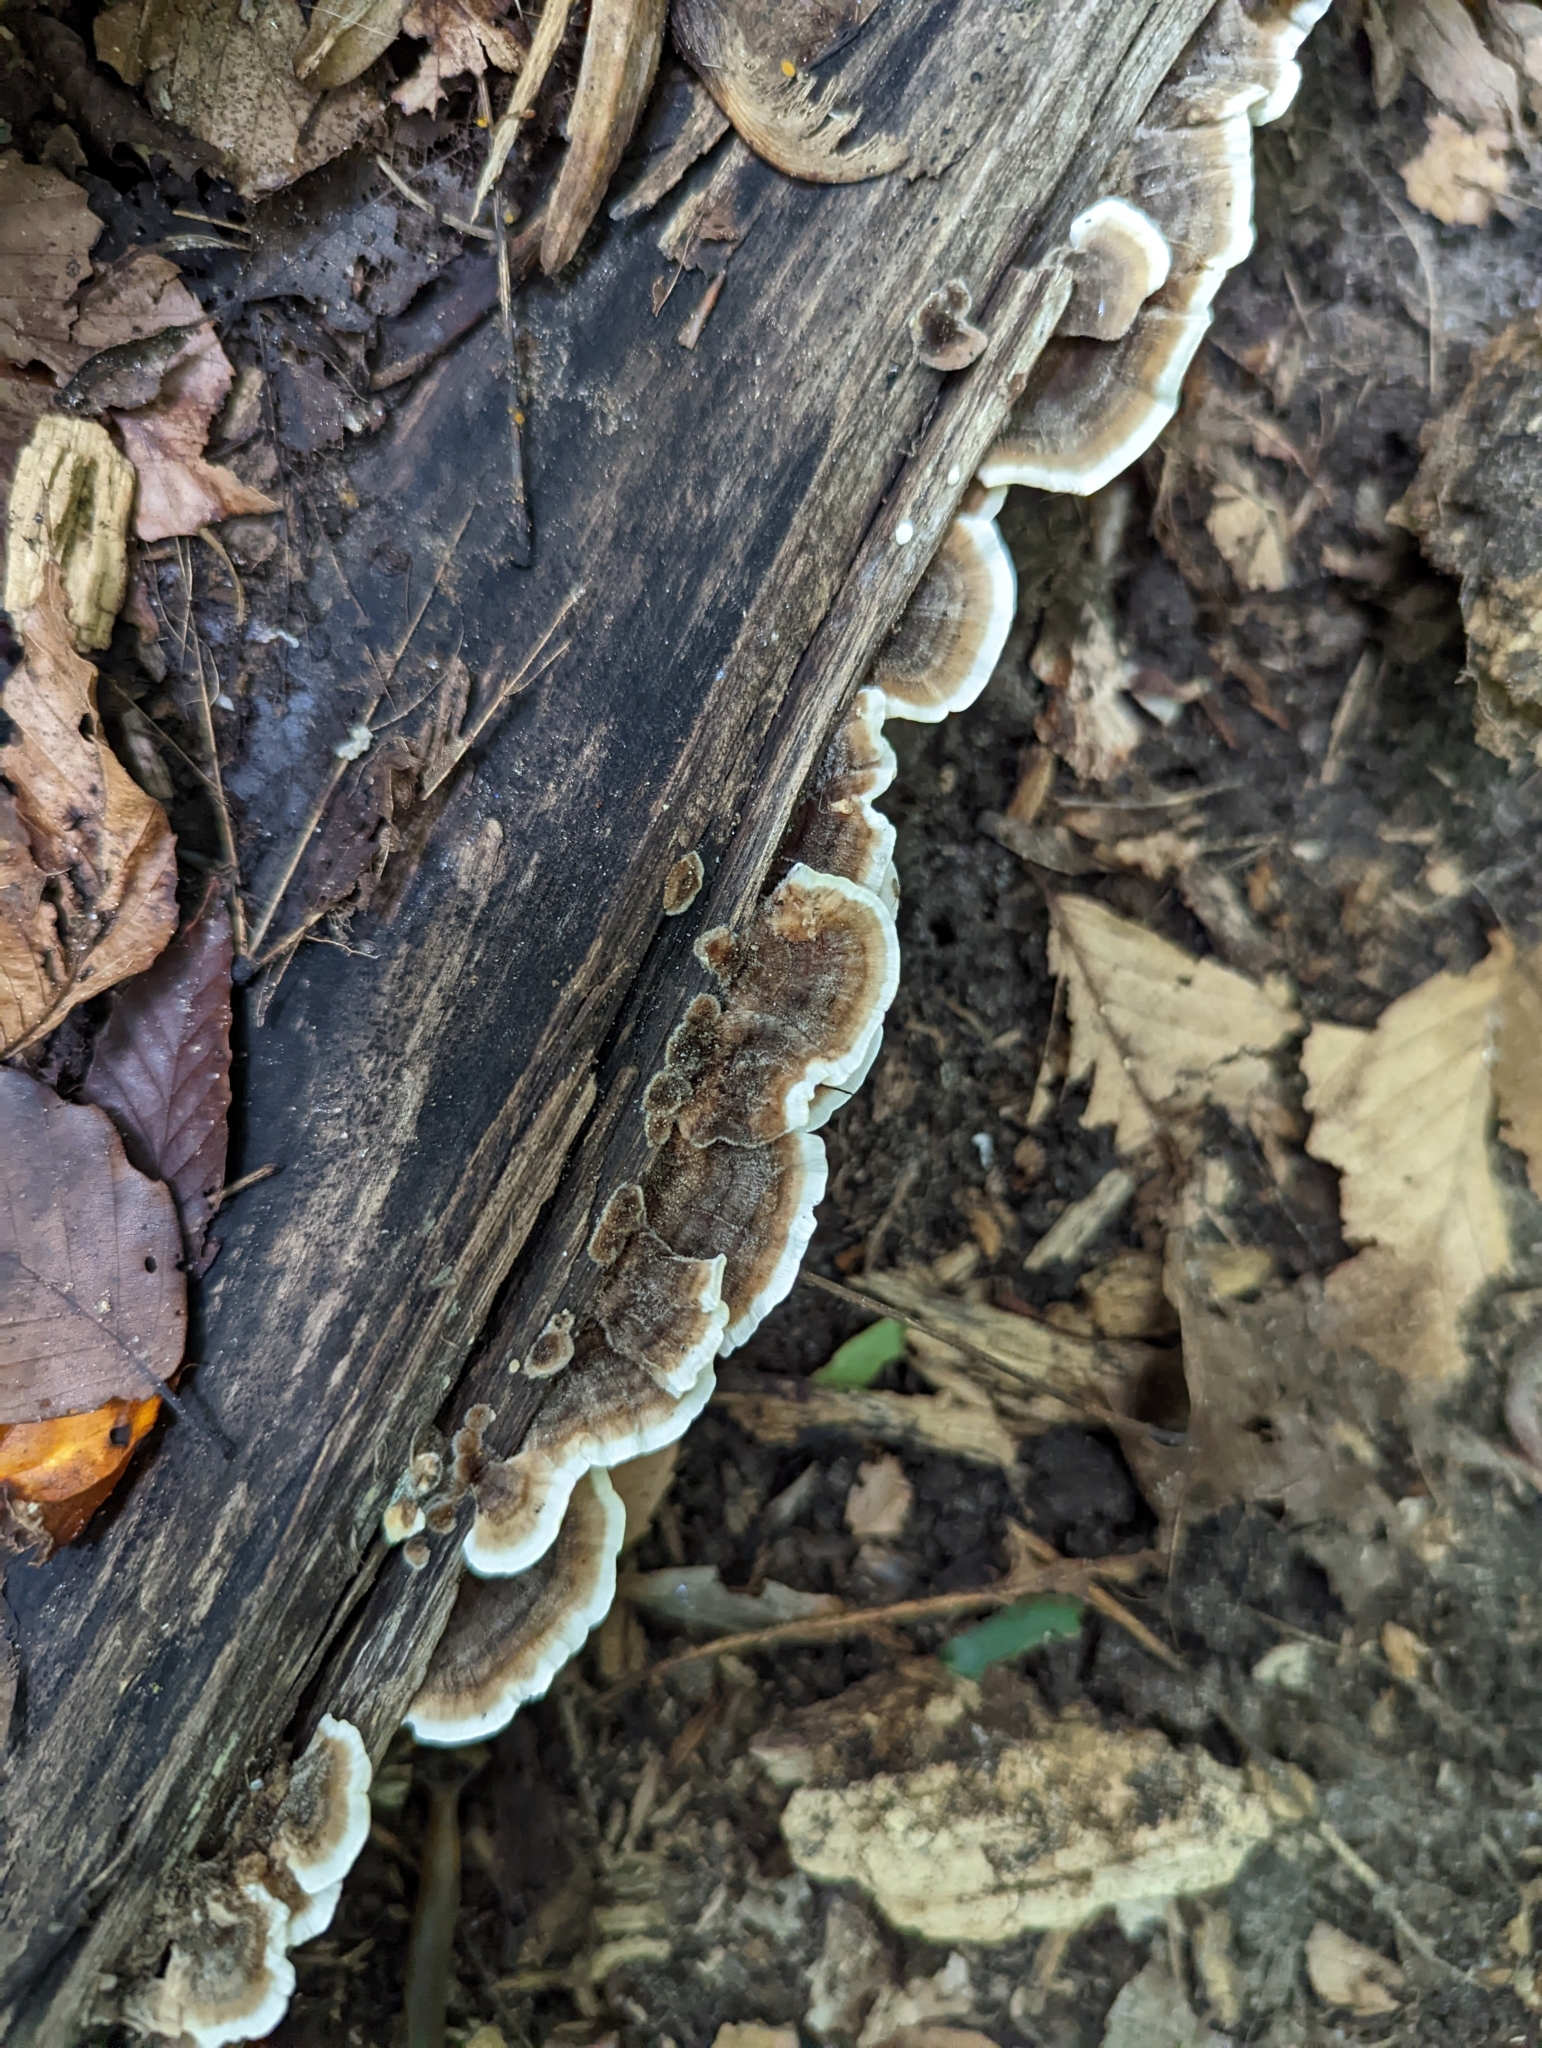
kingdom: Fungi
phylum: Basidiomycota
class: Agaricomycetes
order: Polyporales
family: Polyporaceae
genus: Trametes
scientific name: Trametes versicolor
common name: Turkeytail
